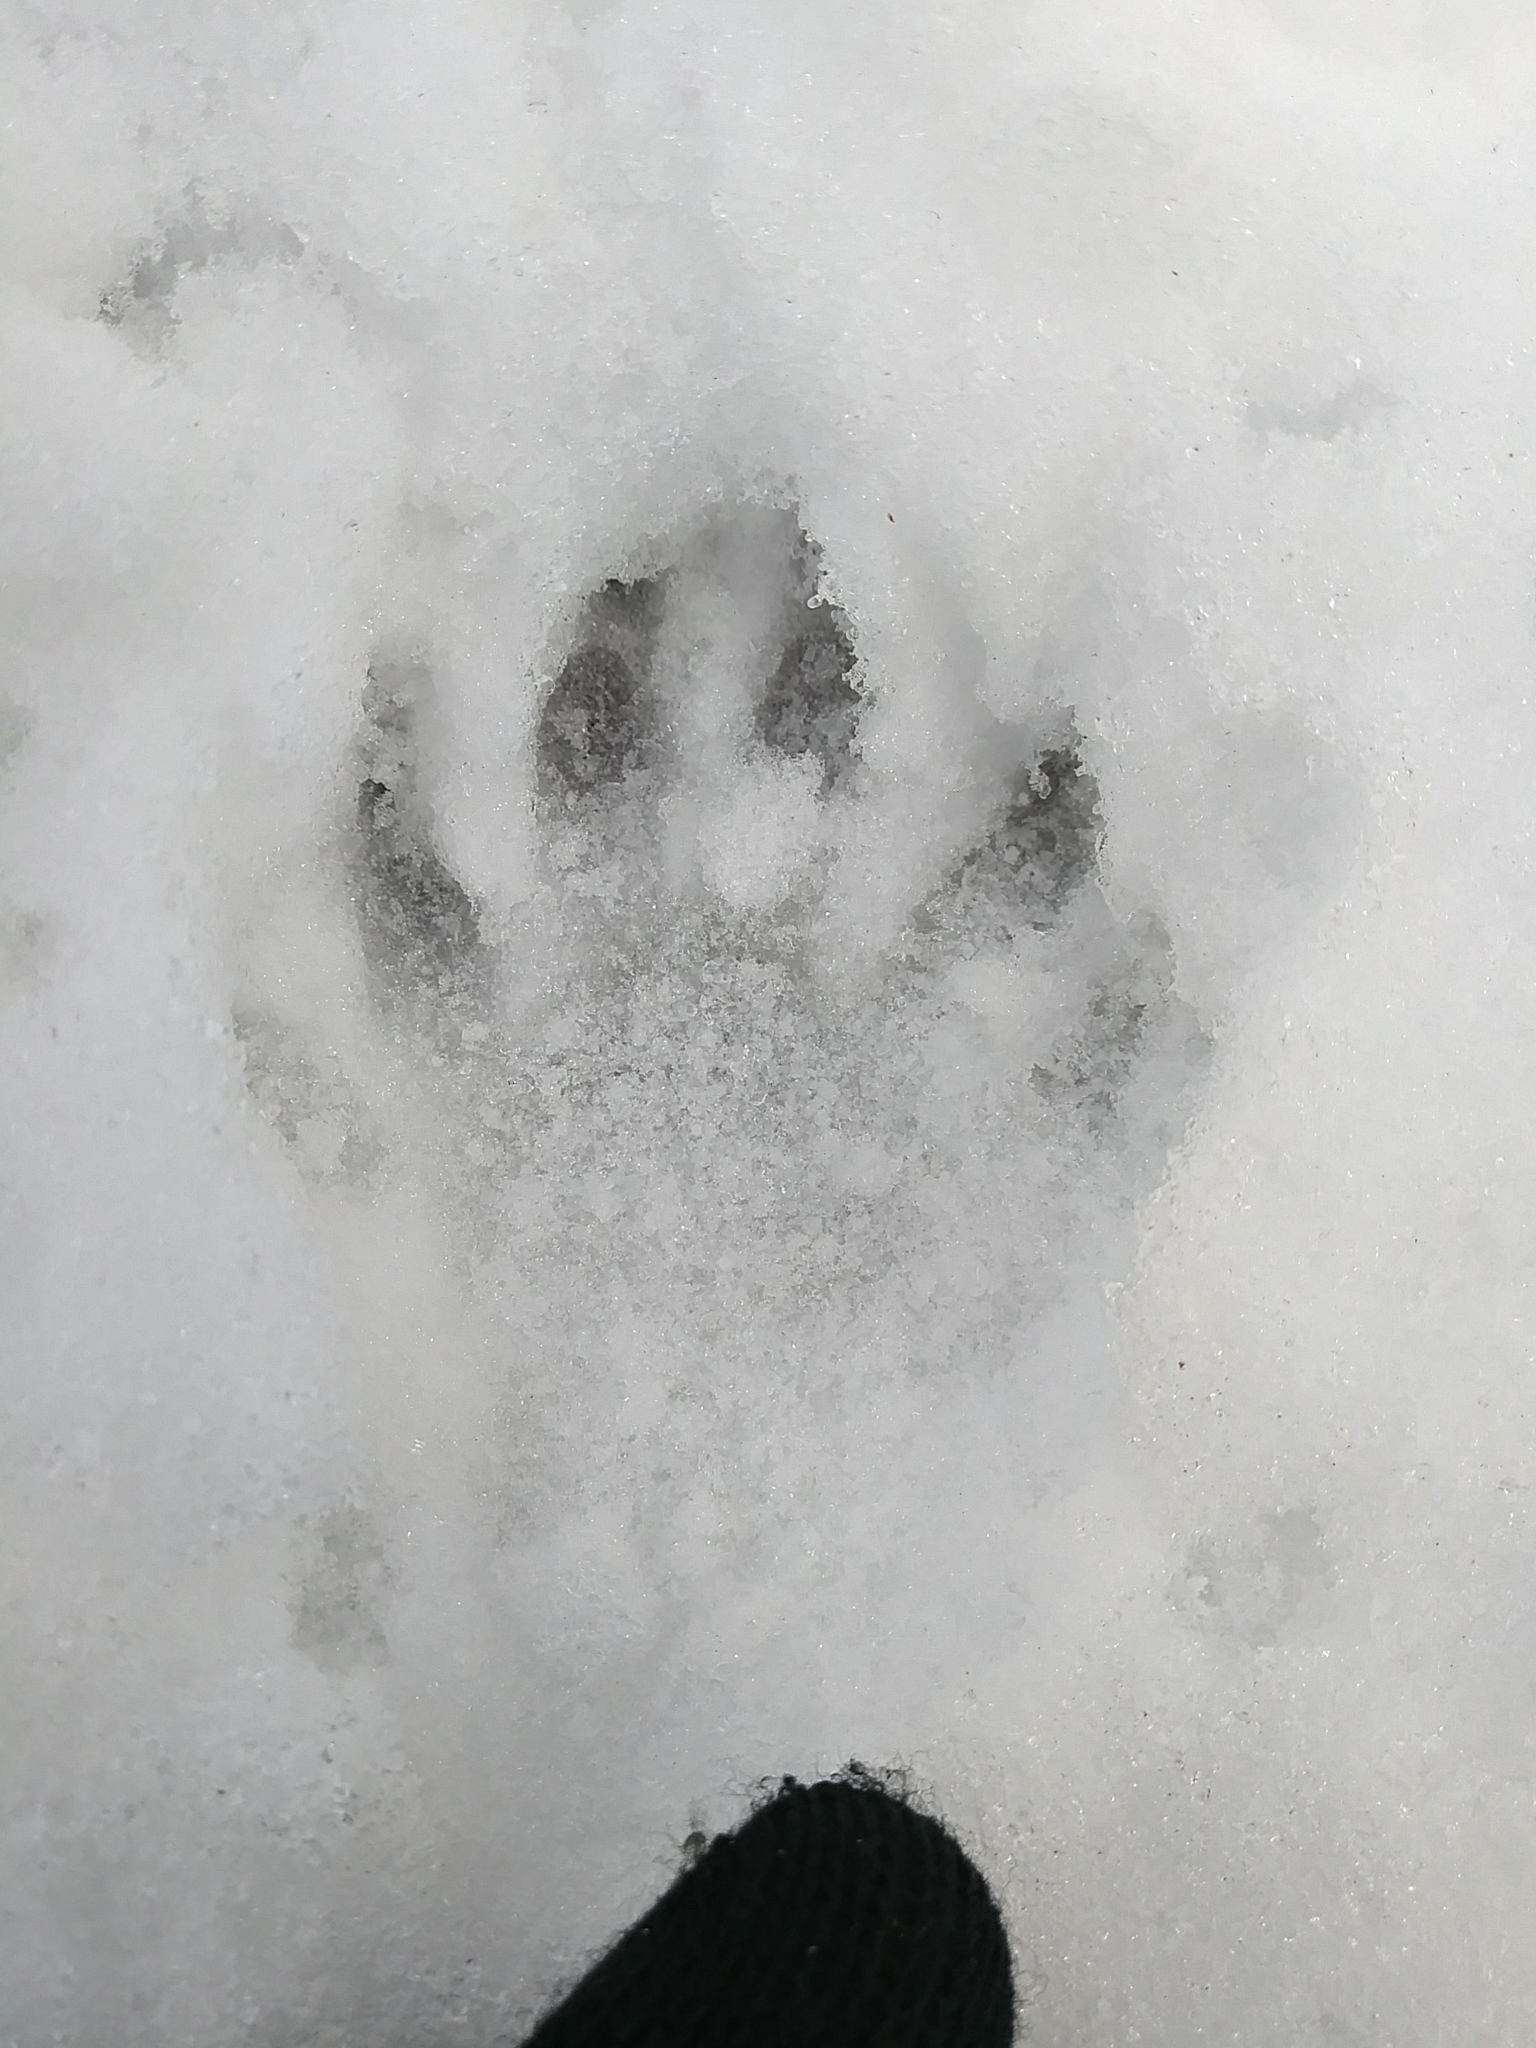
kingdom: Animalia
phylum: Chordata
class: Mammalia
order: Carnivora
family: Mustelidae
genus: Pekania
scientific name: Pekania pennanti
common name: Fisher
